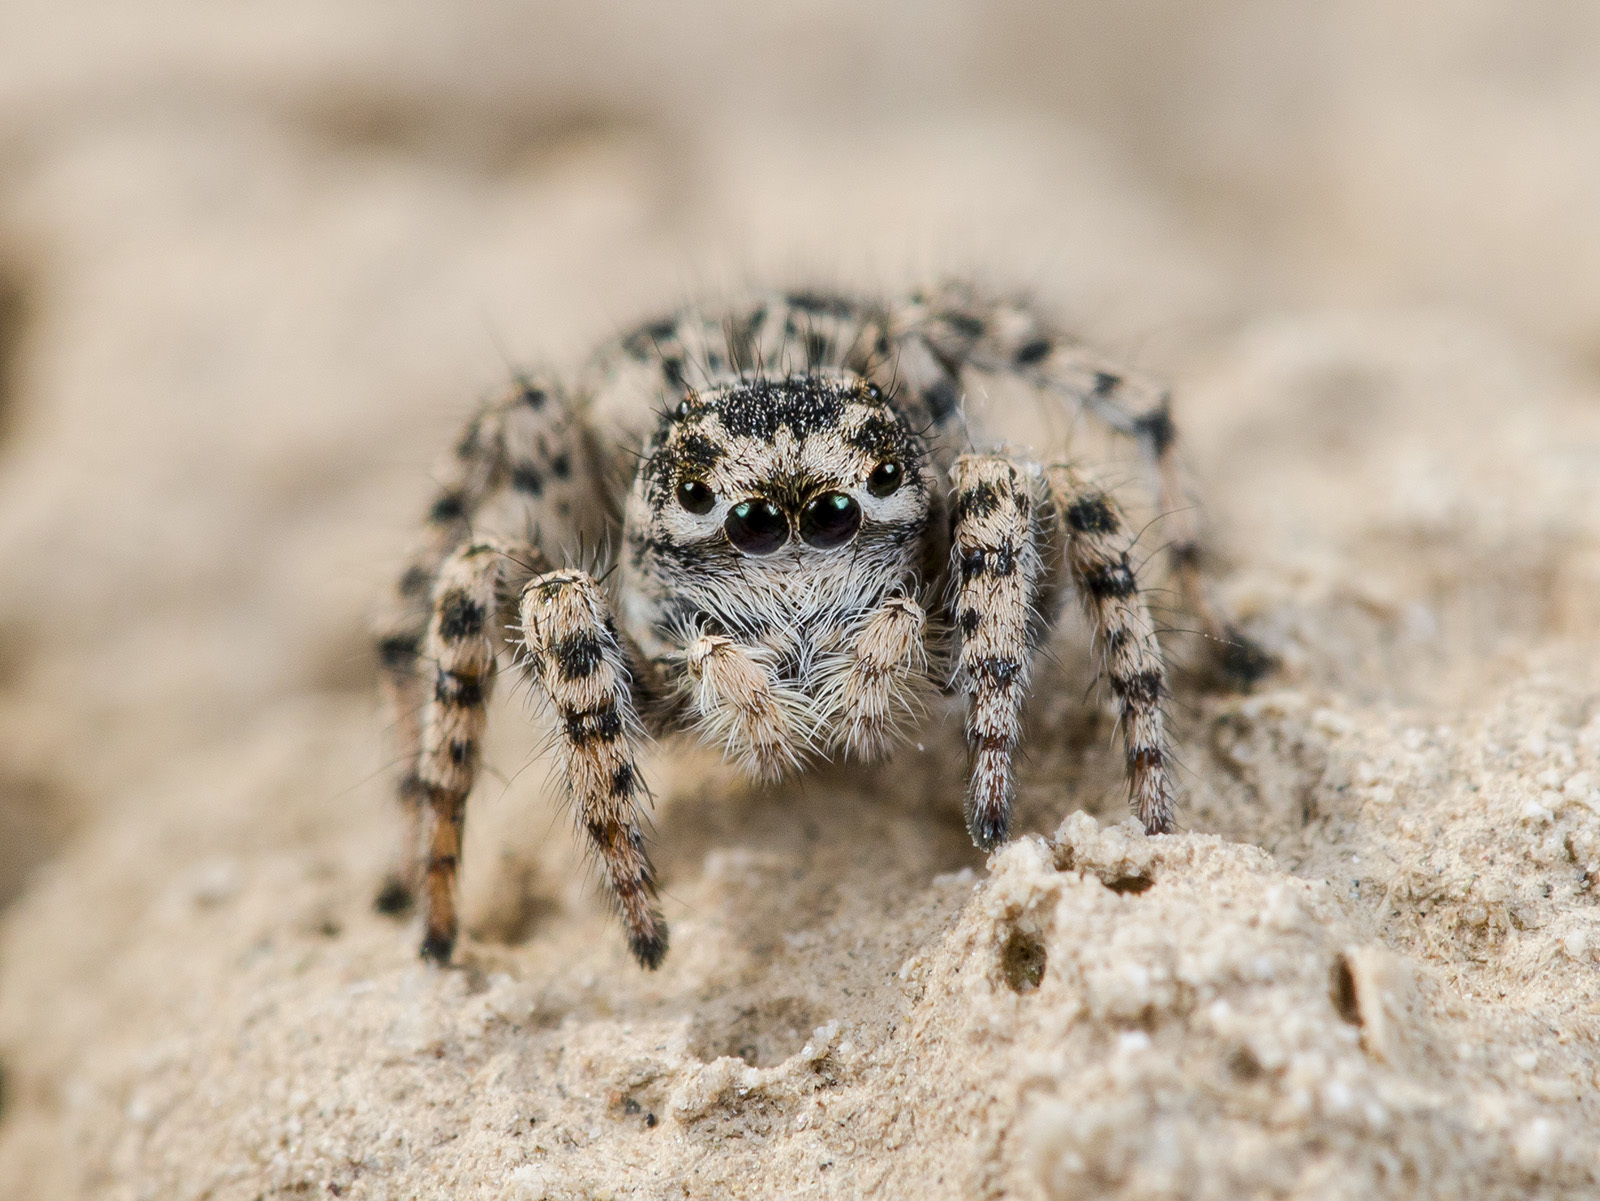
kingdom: Animalia
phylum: Arthropoda
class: Arachnida
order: Araneae
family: Salticidae
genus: Aelurillus
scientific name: Aelurillus dubatolovi
